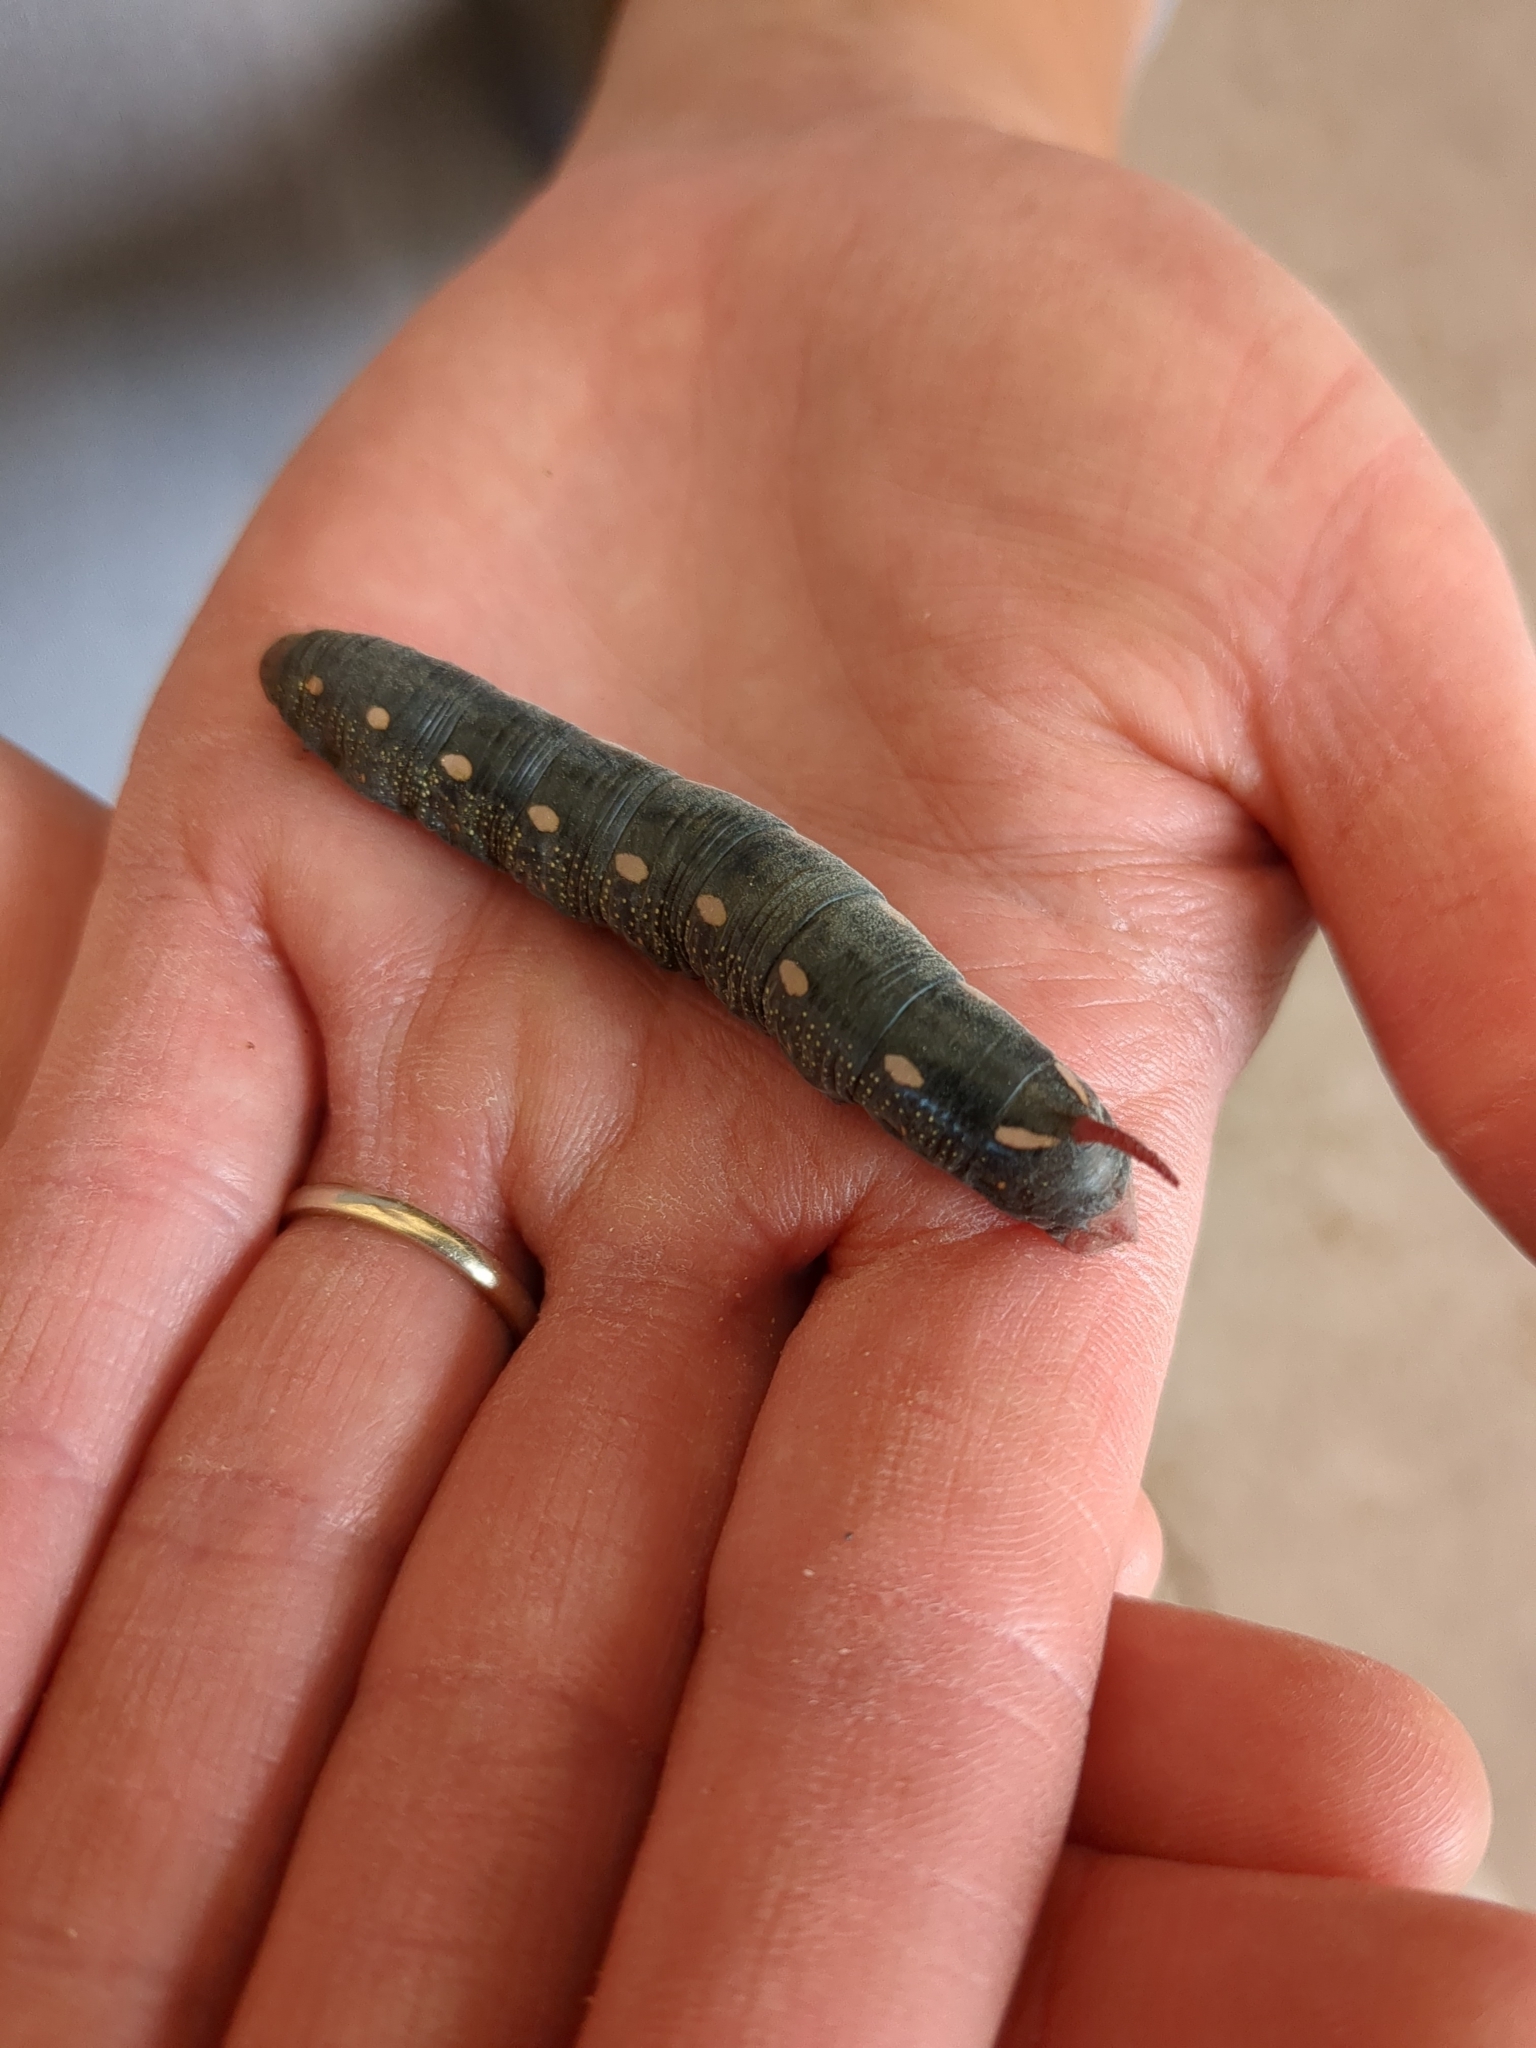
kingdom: Animalia
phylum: Arthropoda
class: Insecta
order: Lepidoptera
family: Sphingidae
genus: Hyles
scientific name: Hyles gallii
